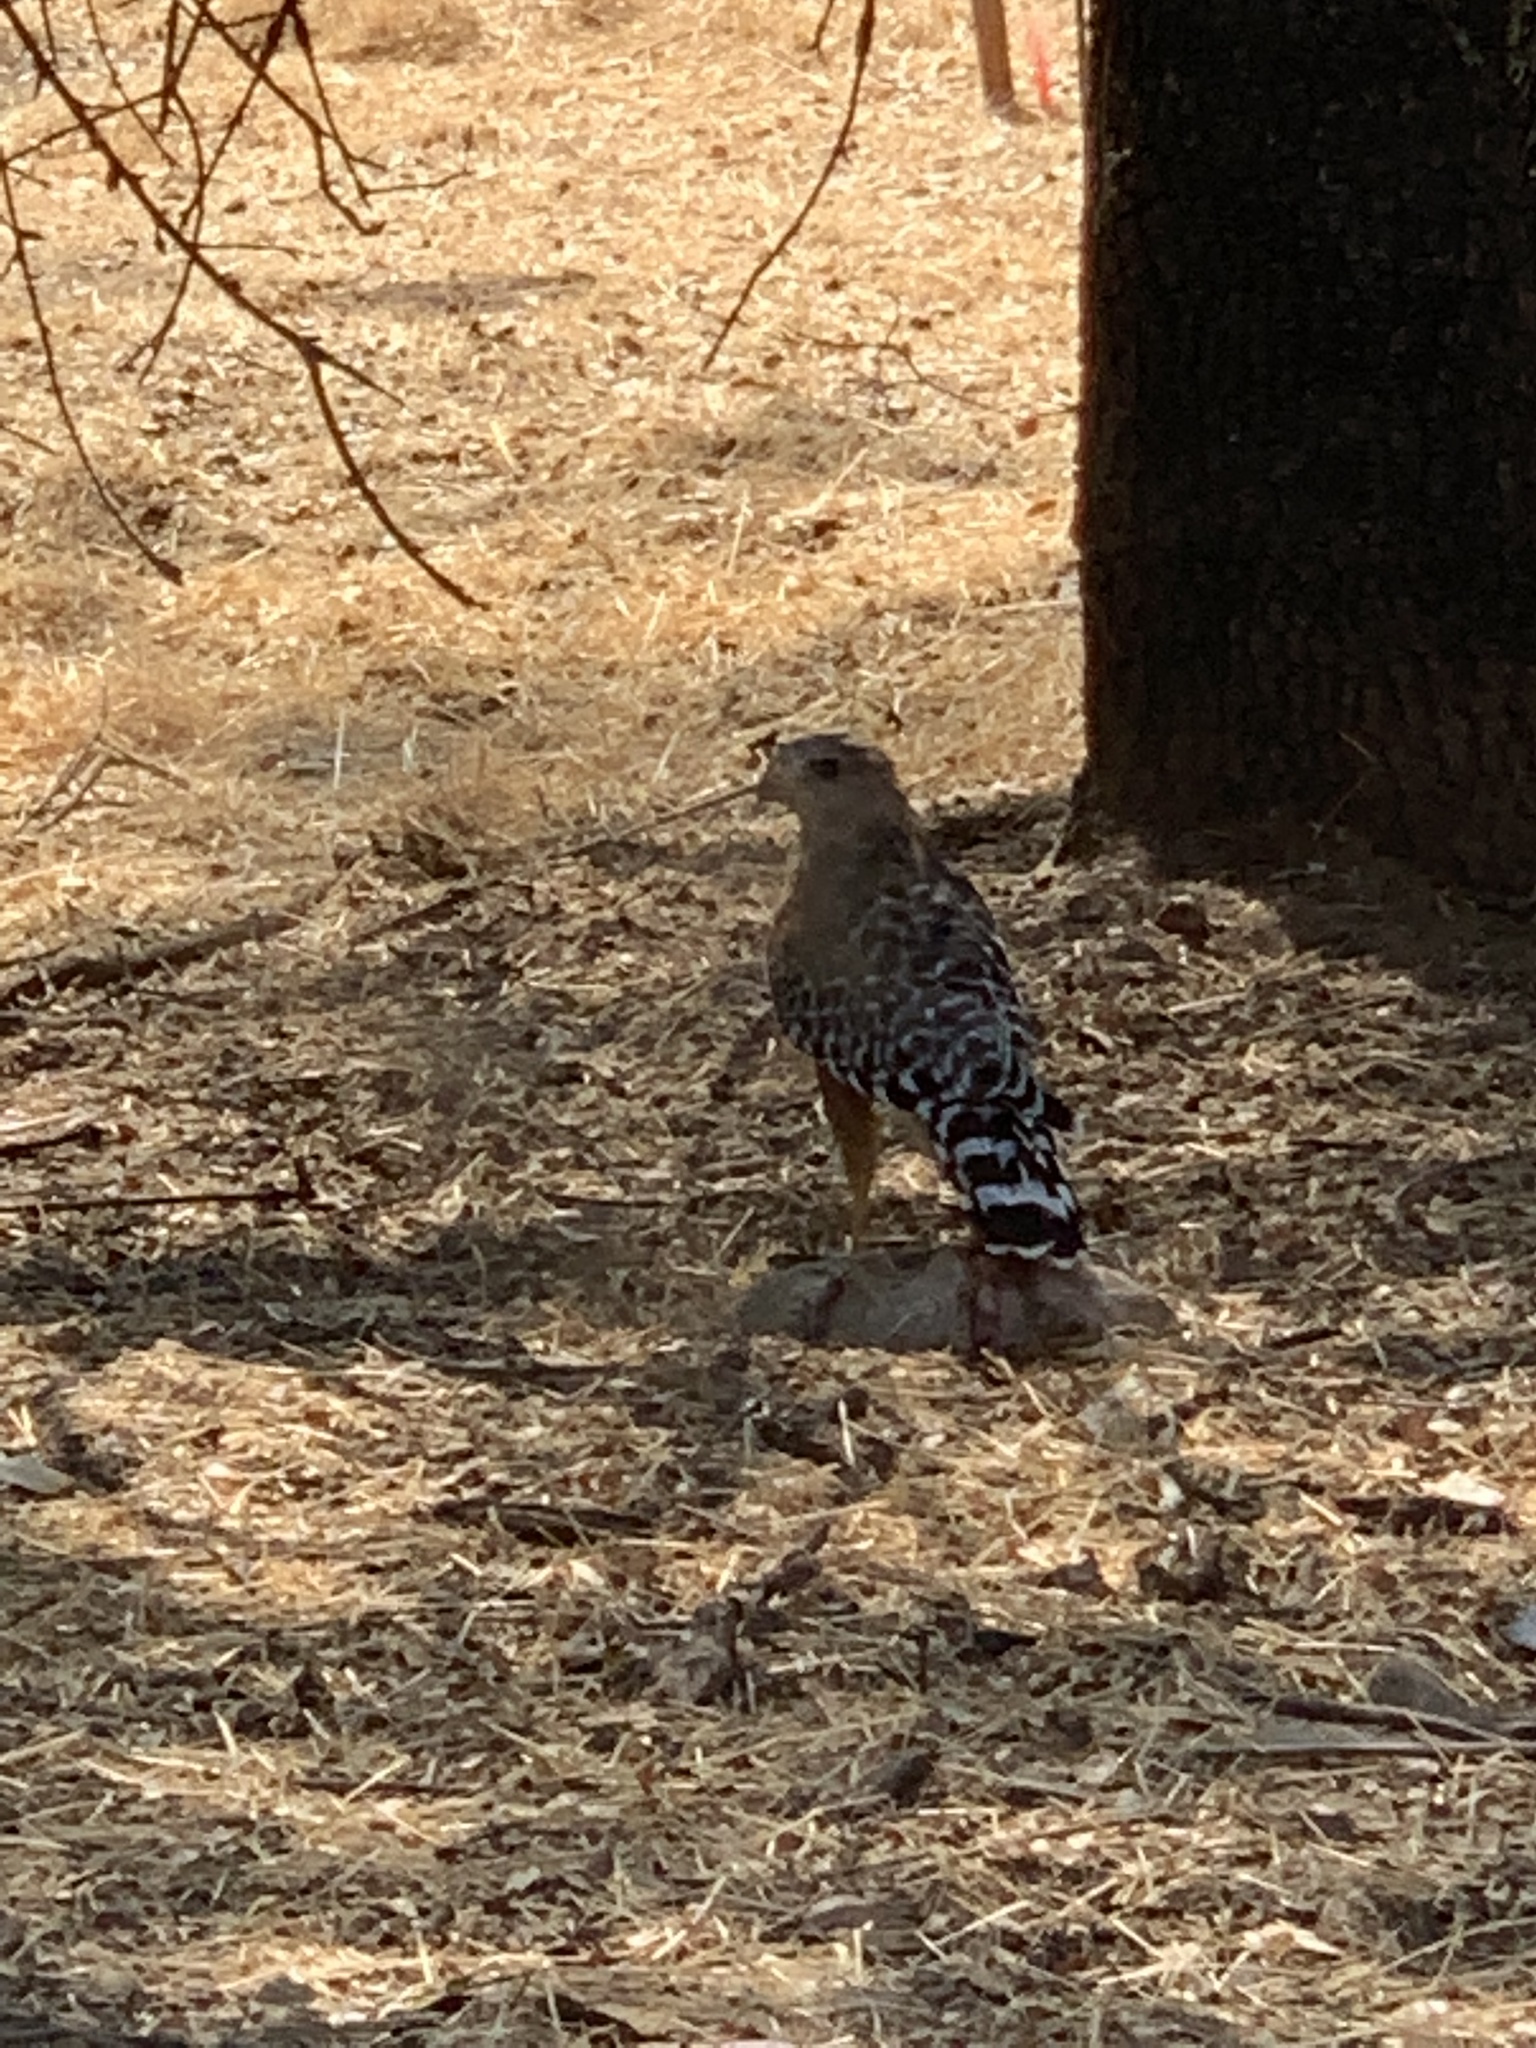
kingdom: Animalia
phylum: Chordata
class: Aves
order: Accipitriformes
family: Accipitridae
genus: Buteo
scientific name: Buteo lineatus
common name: Red-shouldered hawk
